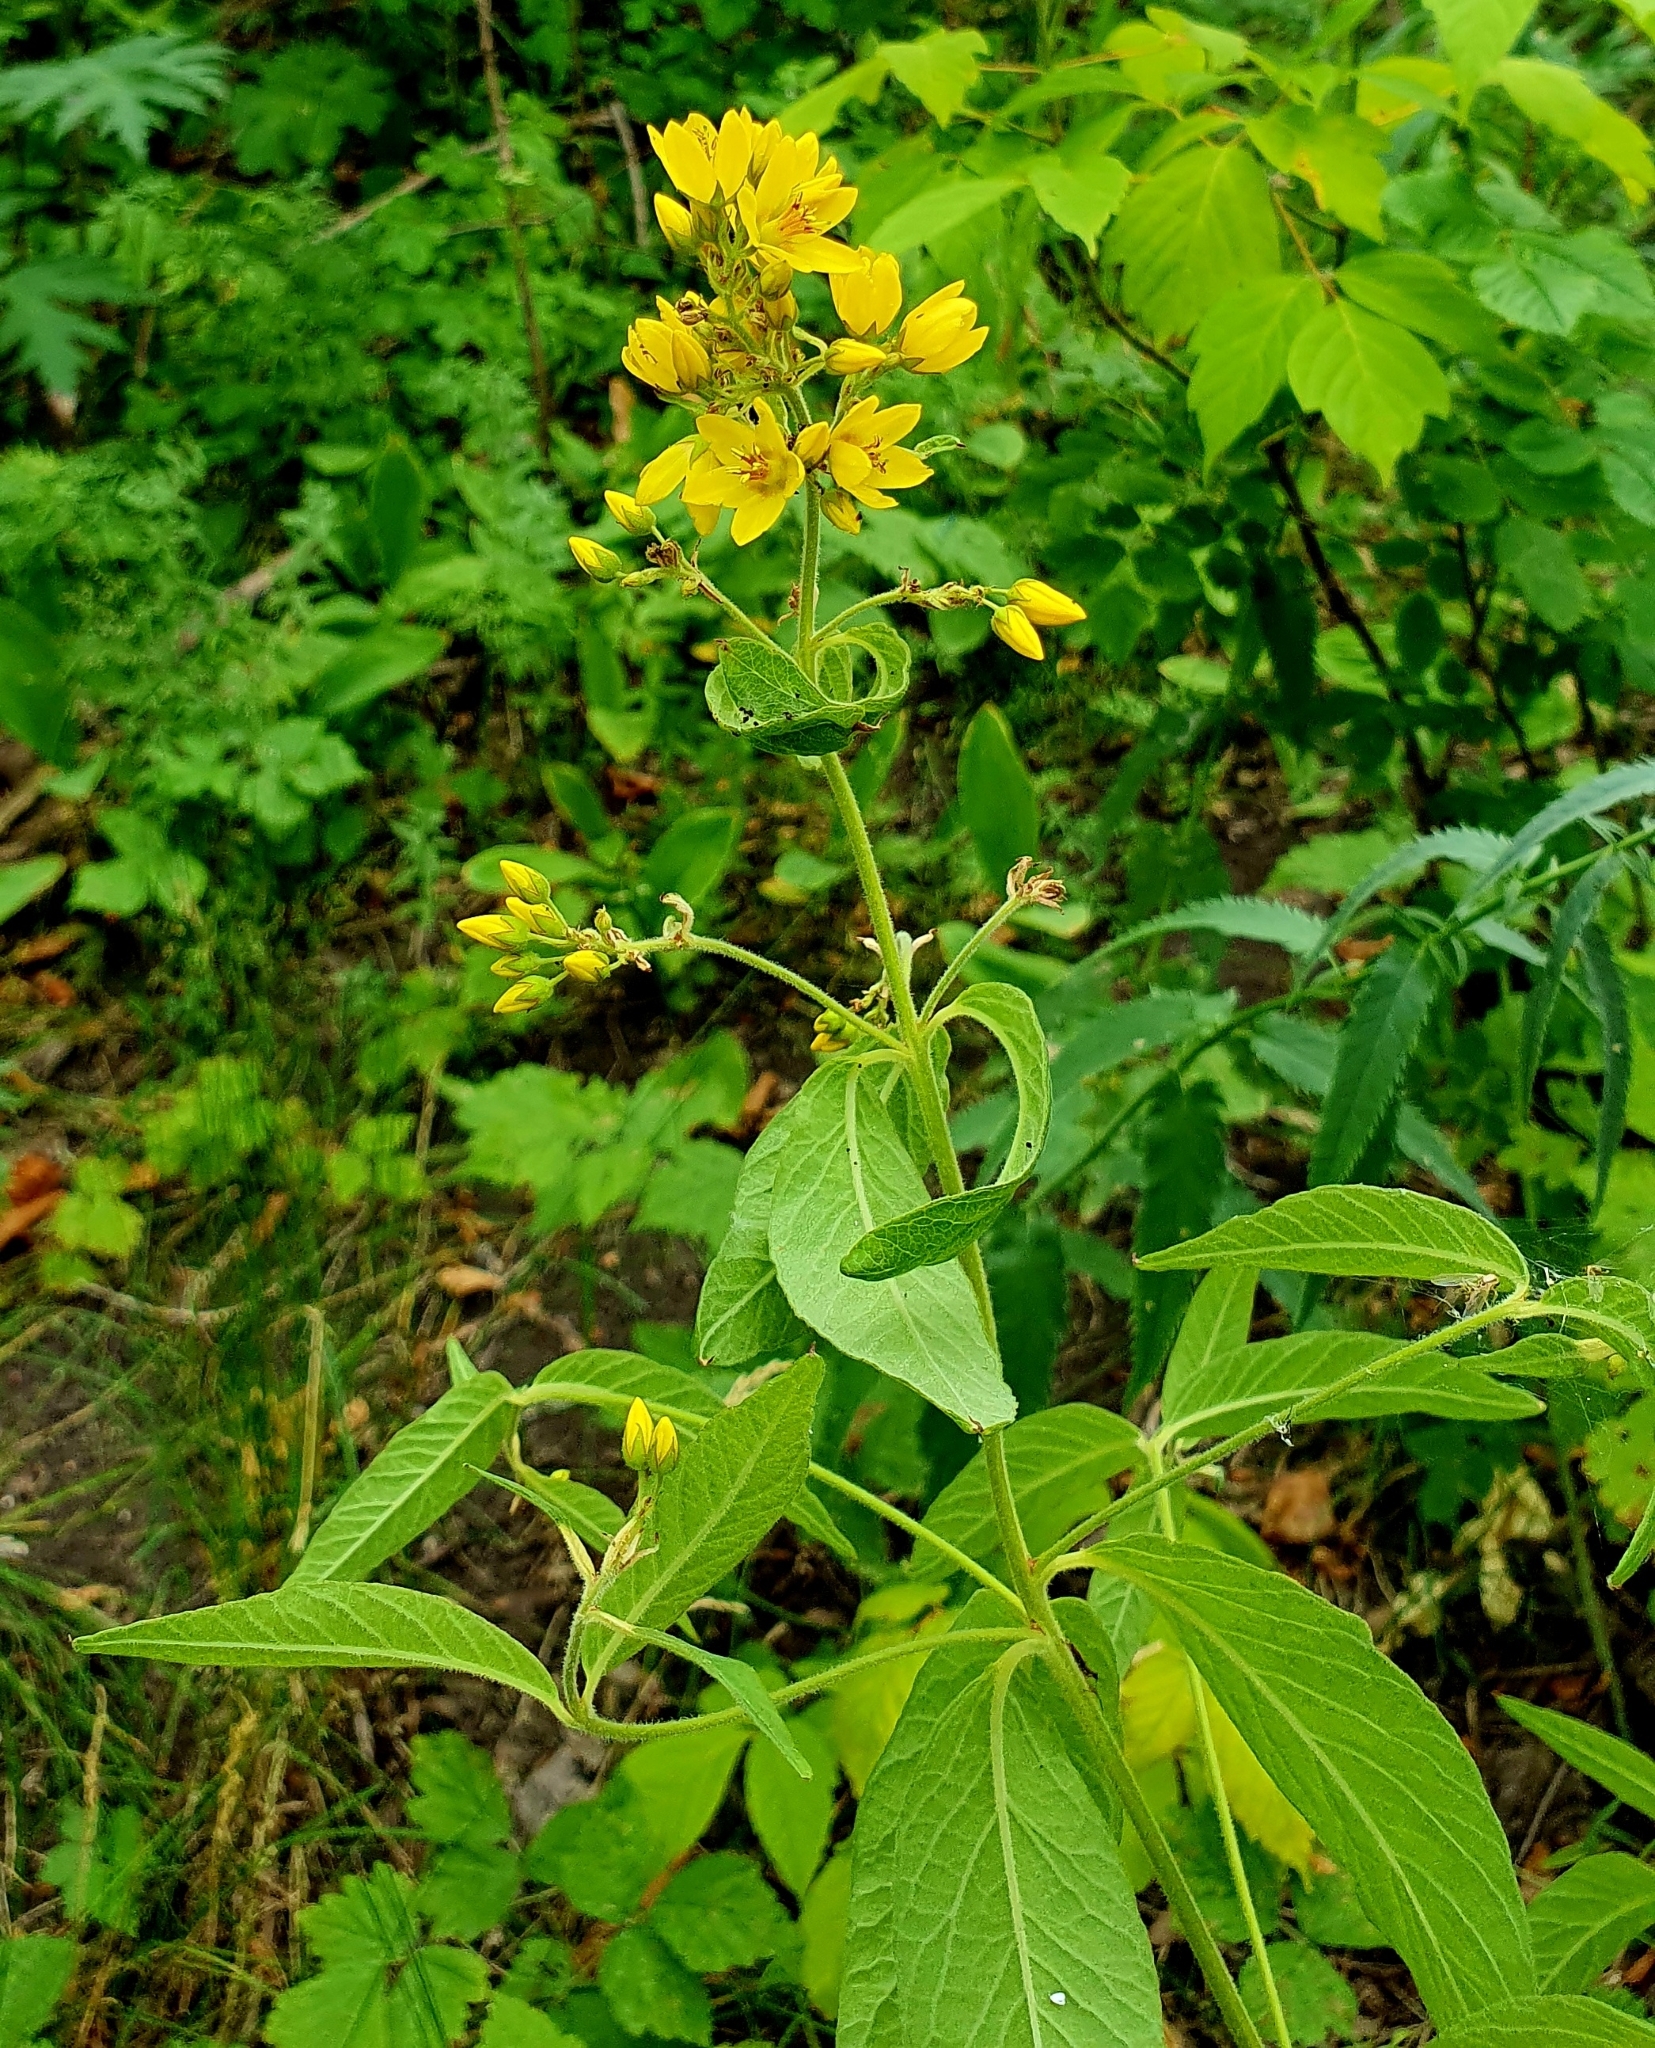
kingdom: Plantae
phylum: Tracheophyta
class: Magnoliopsida
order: Ericales
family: Primulaceae
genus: Lysimachia
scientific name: Lysimachia vulgaris
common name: Yellow loosestrife
